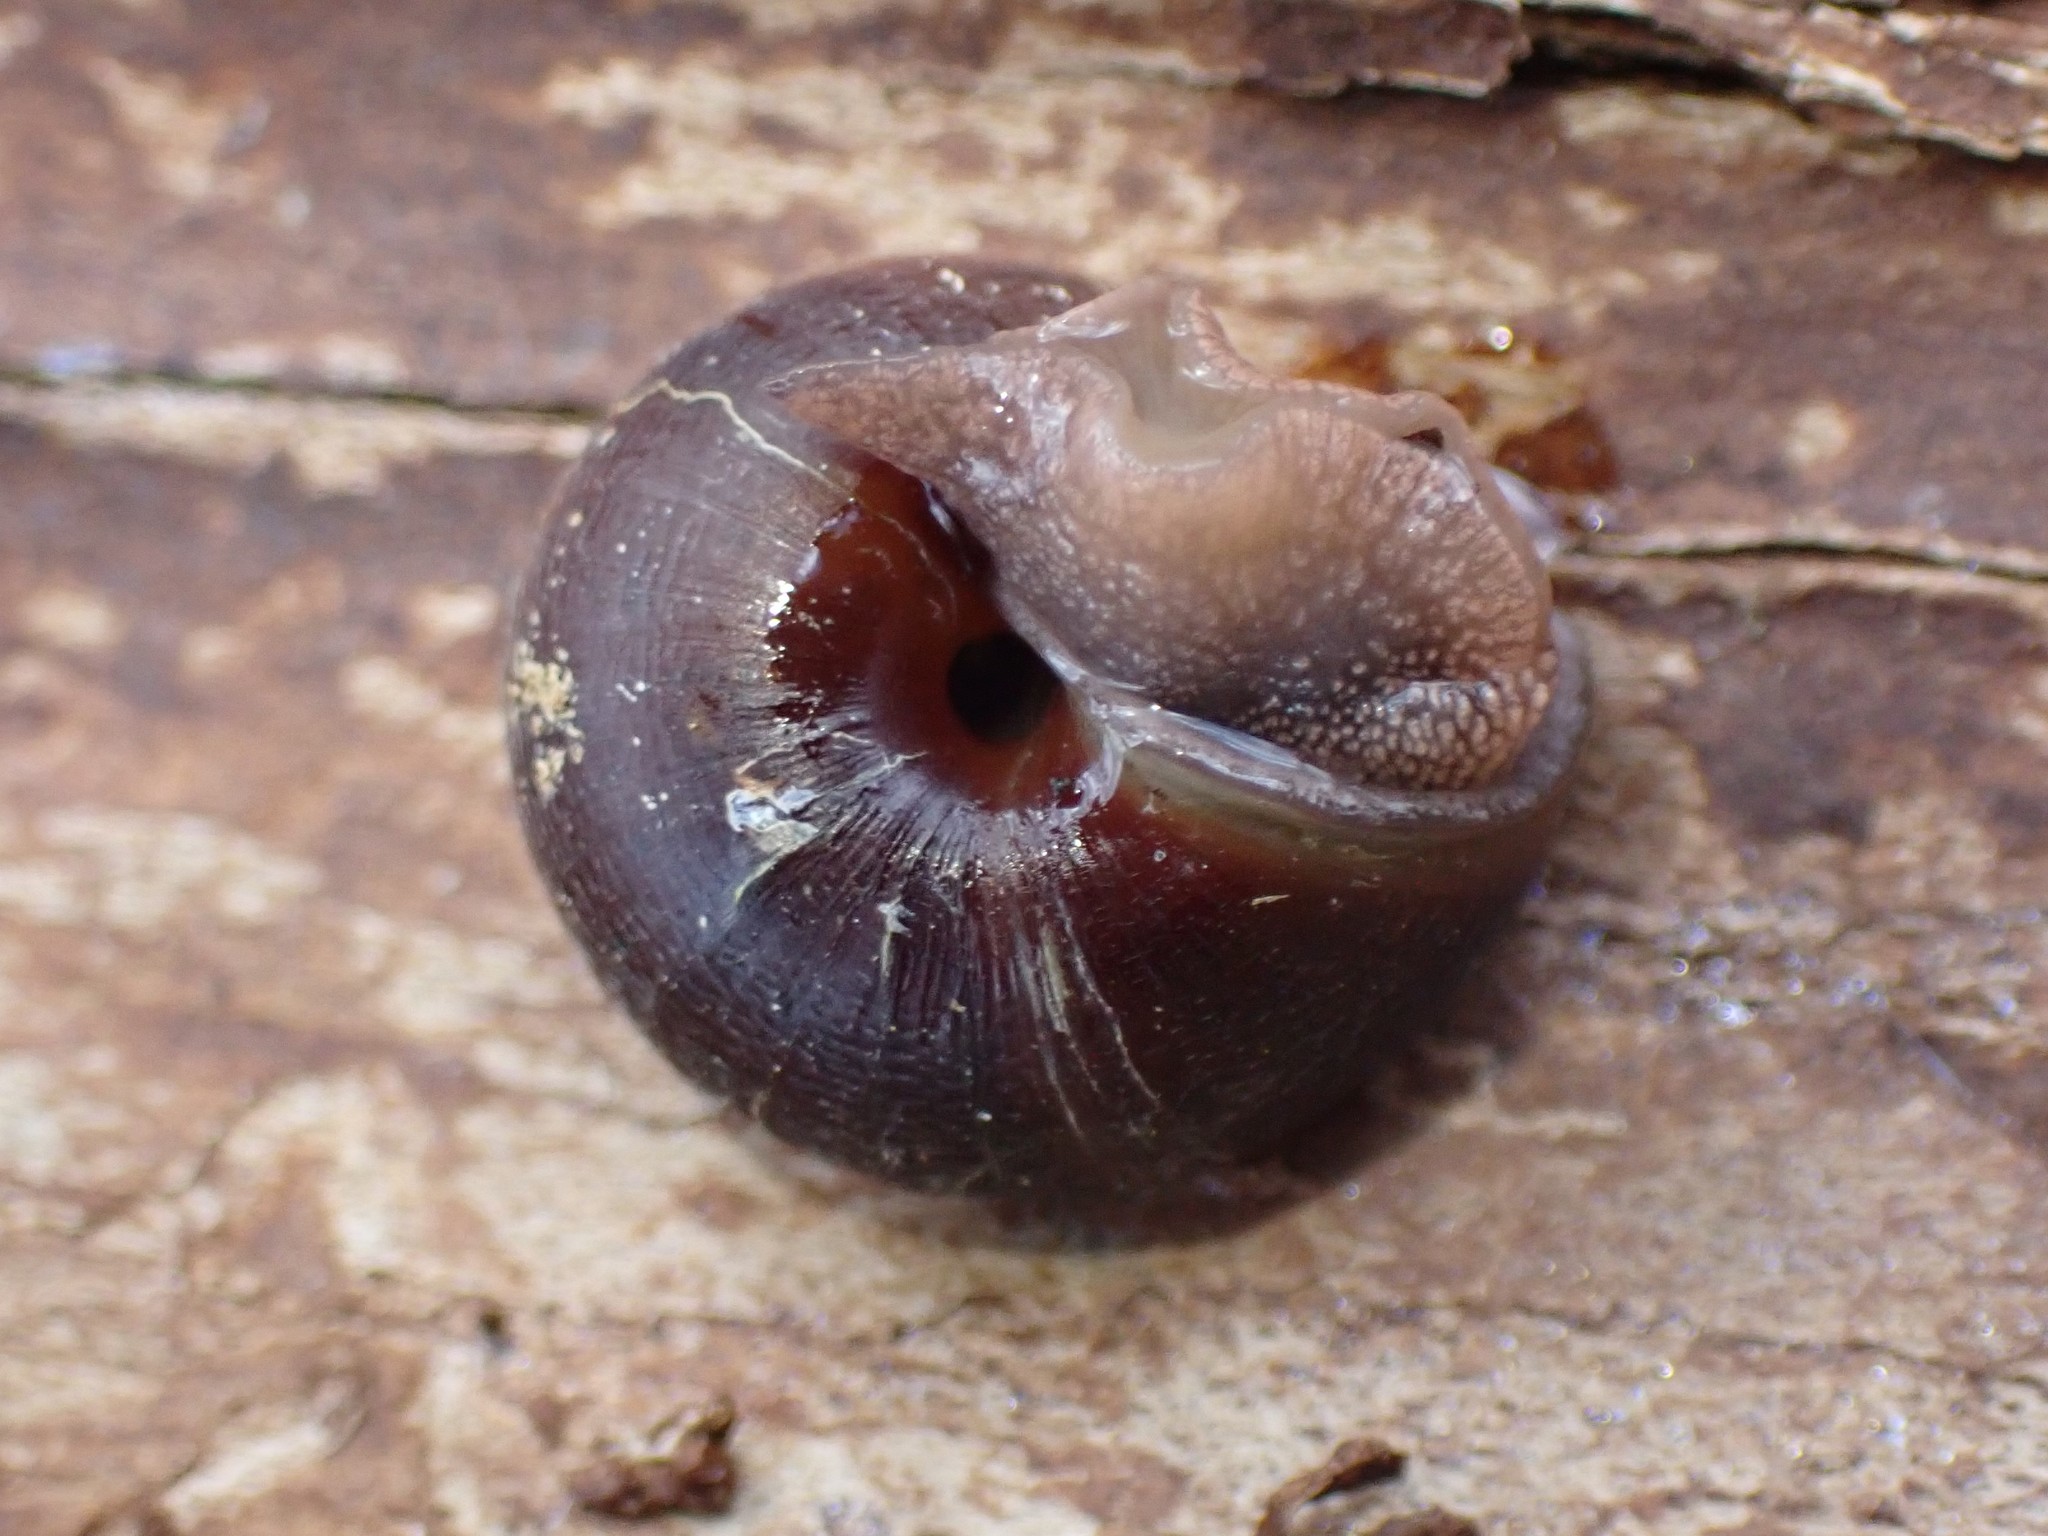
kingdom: Animalia
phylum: Mollusca
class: Gastropoda
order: Stylommatophora
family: Xanthonychidae
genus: Monadenia
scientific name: Monadenia fidelis
